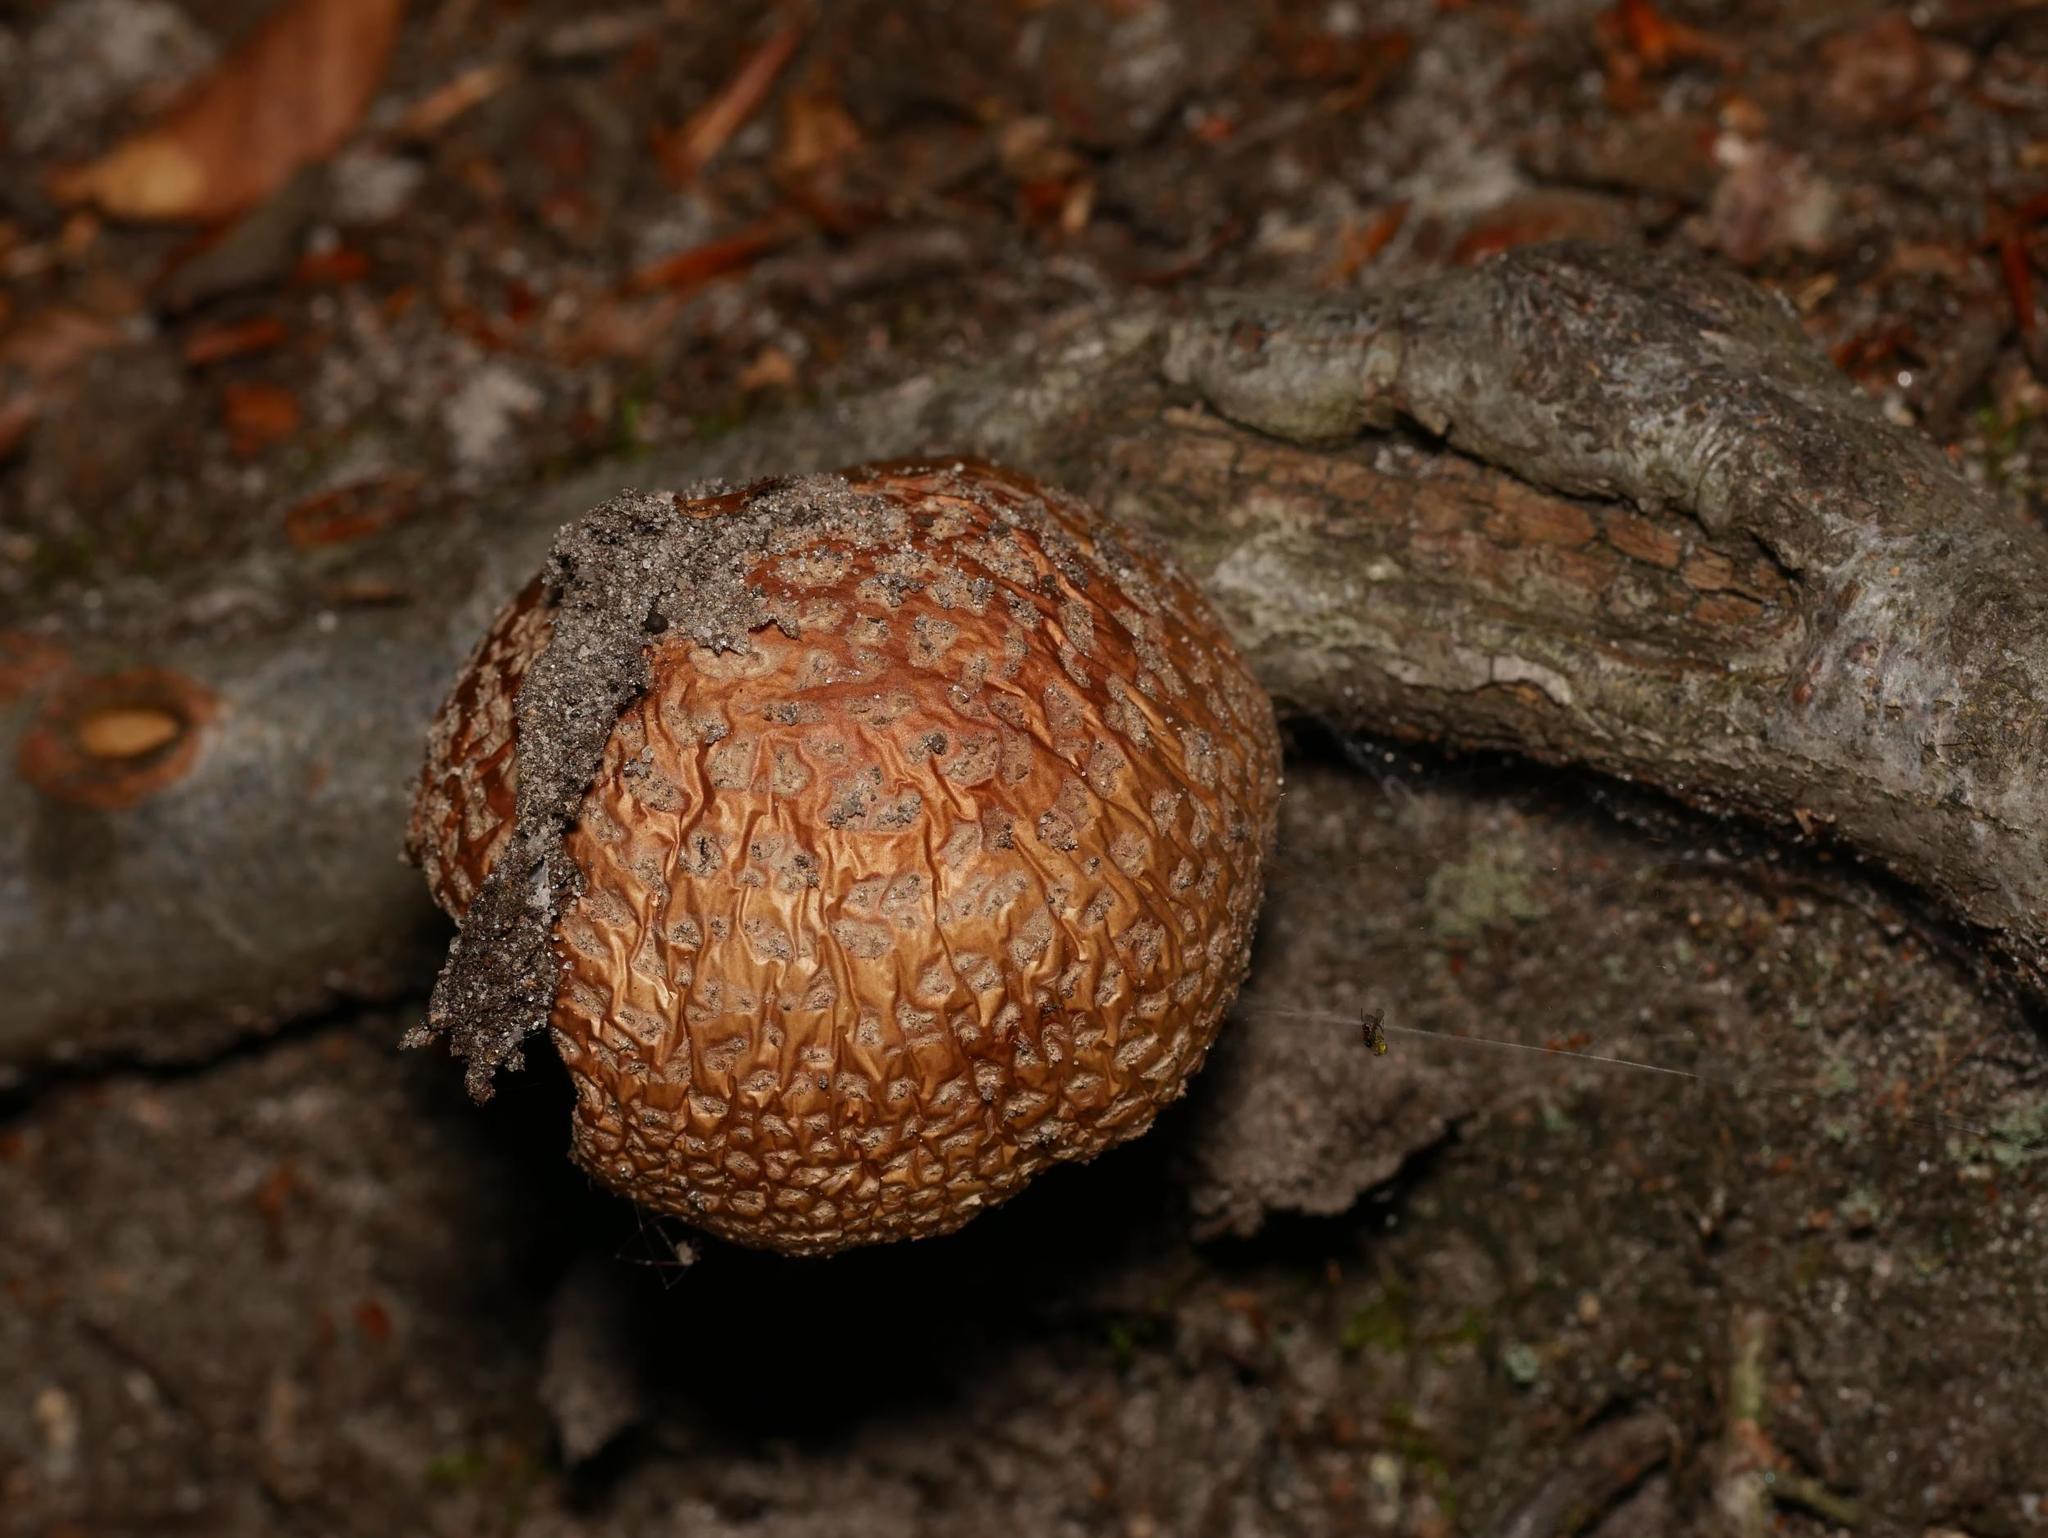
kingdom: Fungi
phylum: Basidiomycota
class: Agaricomycetes
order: Agaricales
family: Amanitaceae
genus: Amanita
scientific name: Amanita rubescens
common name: Blusher
